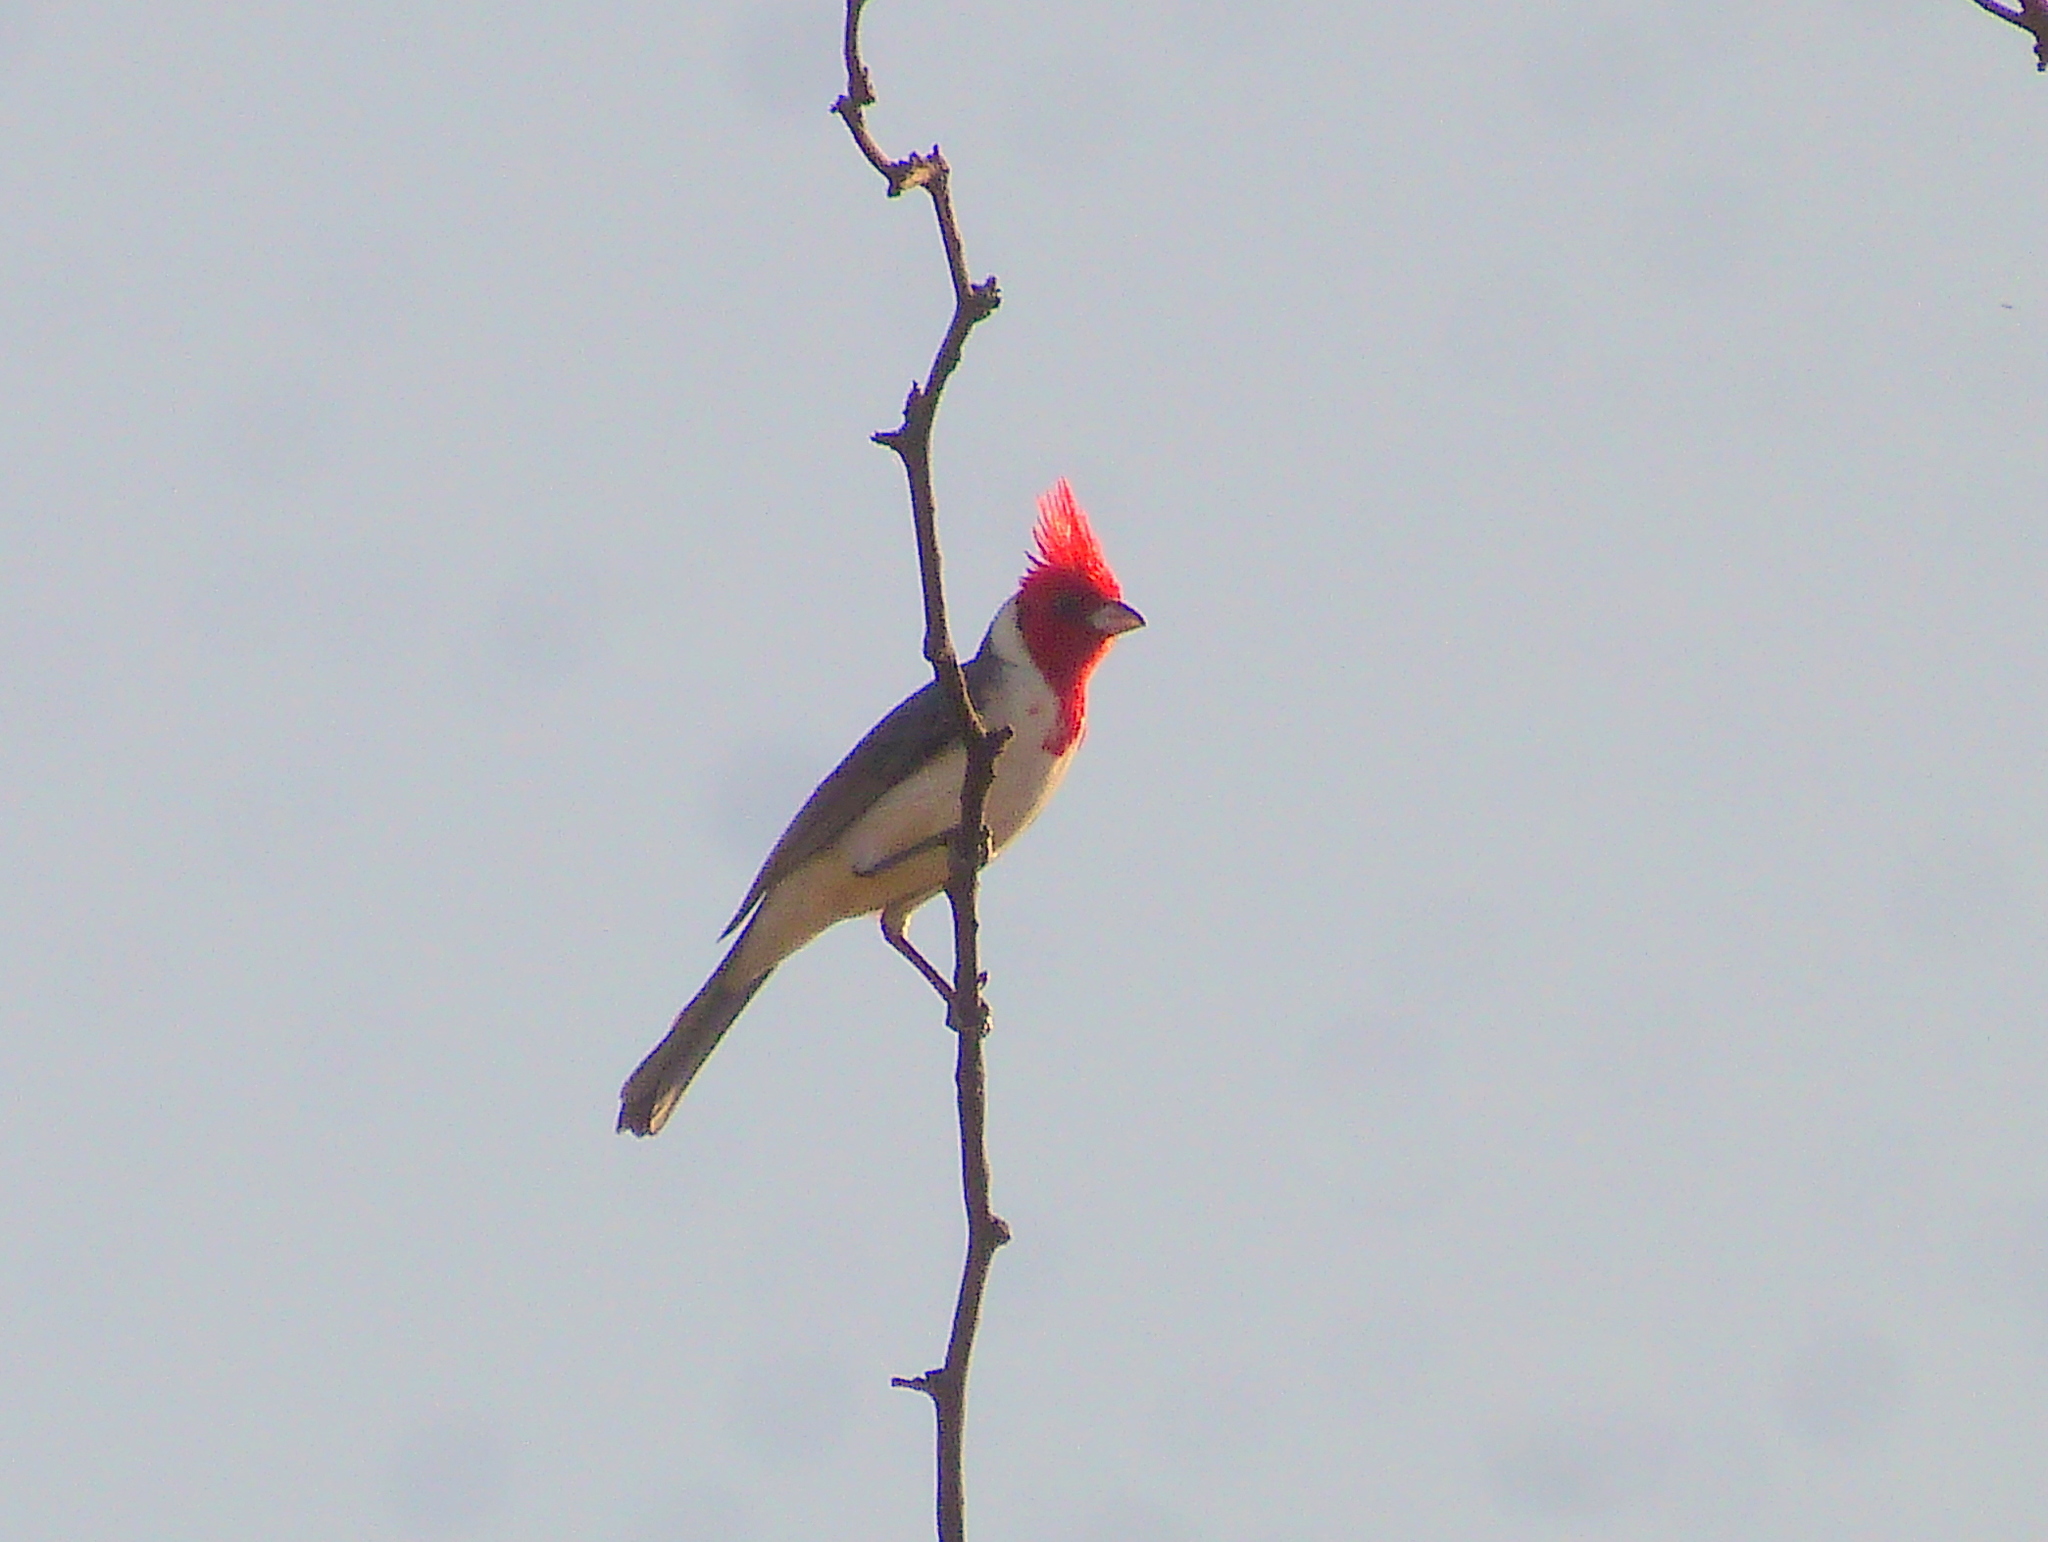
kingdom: Animalia
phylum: Chordata
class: Aves
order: Passeriformes
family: Thraupidae
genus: Paroaria
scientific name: Paroaria coronata
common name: Red-crested cardinal
